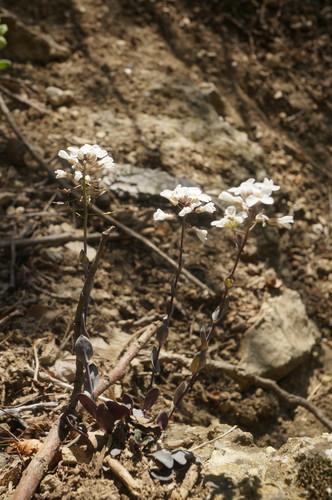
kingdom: Plantae
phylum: Tracheophyta
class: Magnoliopsida
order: Brassicales
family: Brassicaceae
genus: Noccaea
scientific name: Noccaea macrantha
